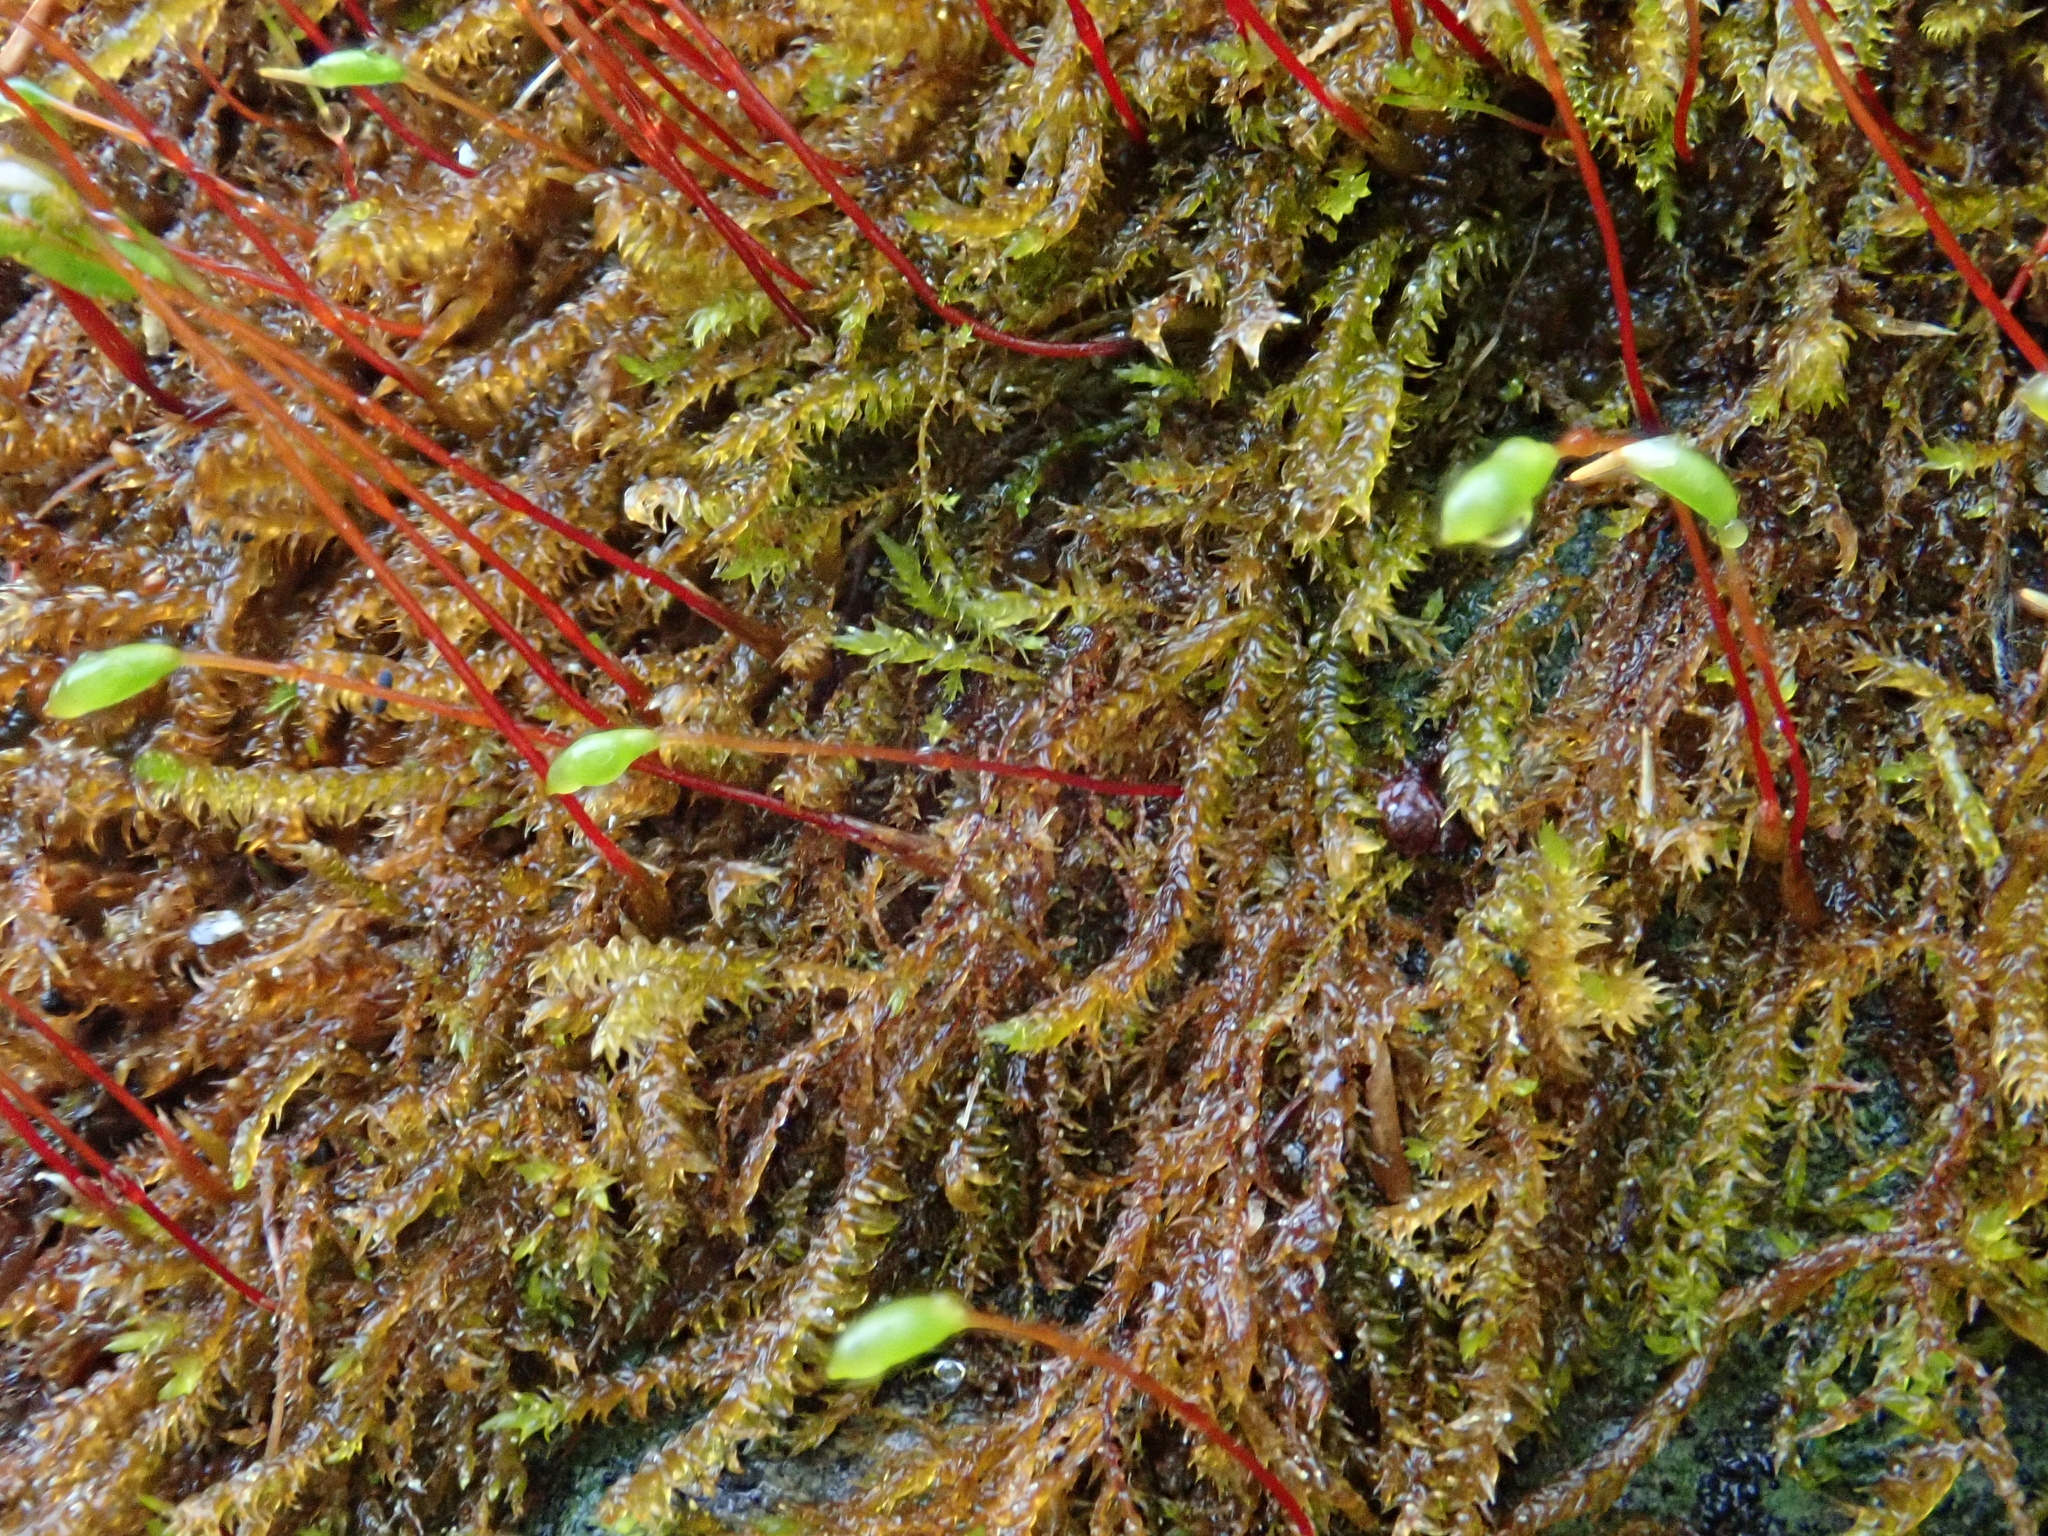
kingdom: Plantae
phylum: Bryophyta
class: Bryopsida
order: Hypnales
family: Amblystegiaceae
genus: Hygrohypnum
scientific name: Hygrohypnum luridum
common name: Drab brook moss
